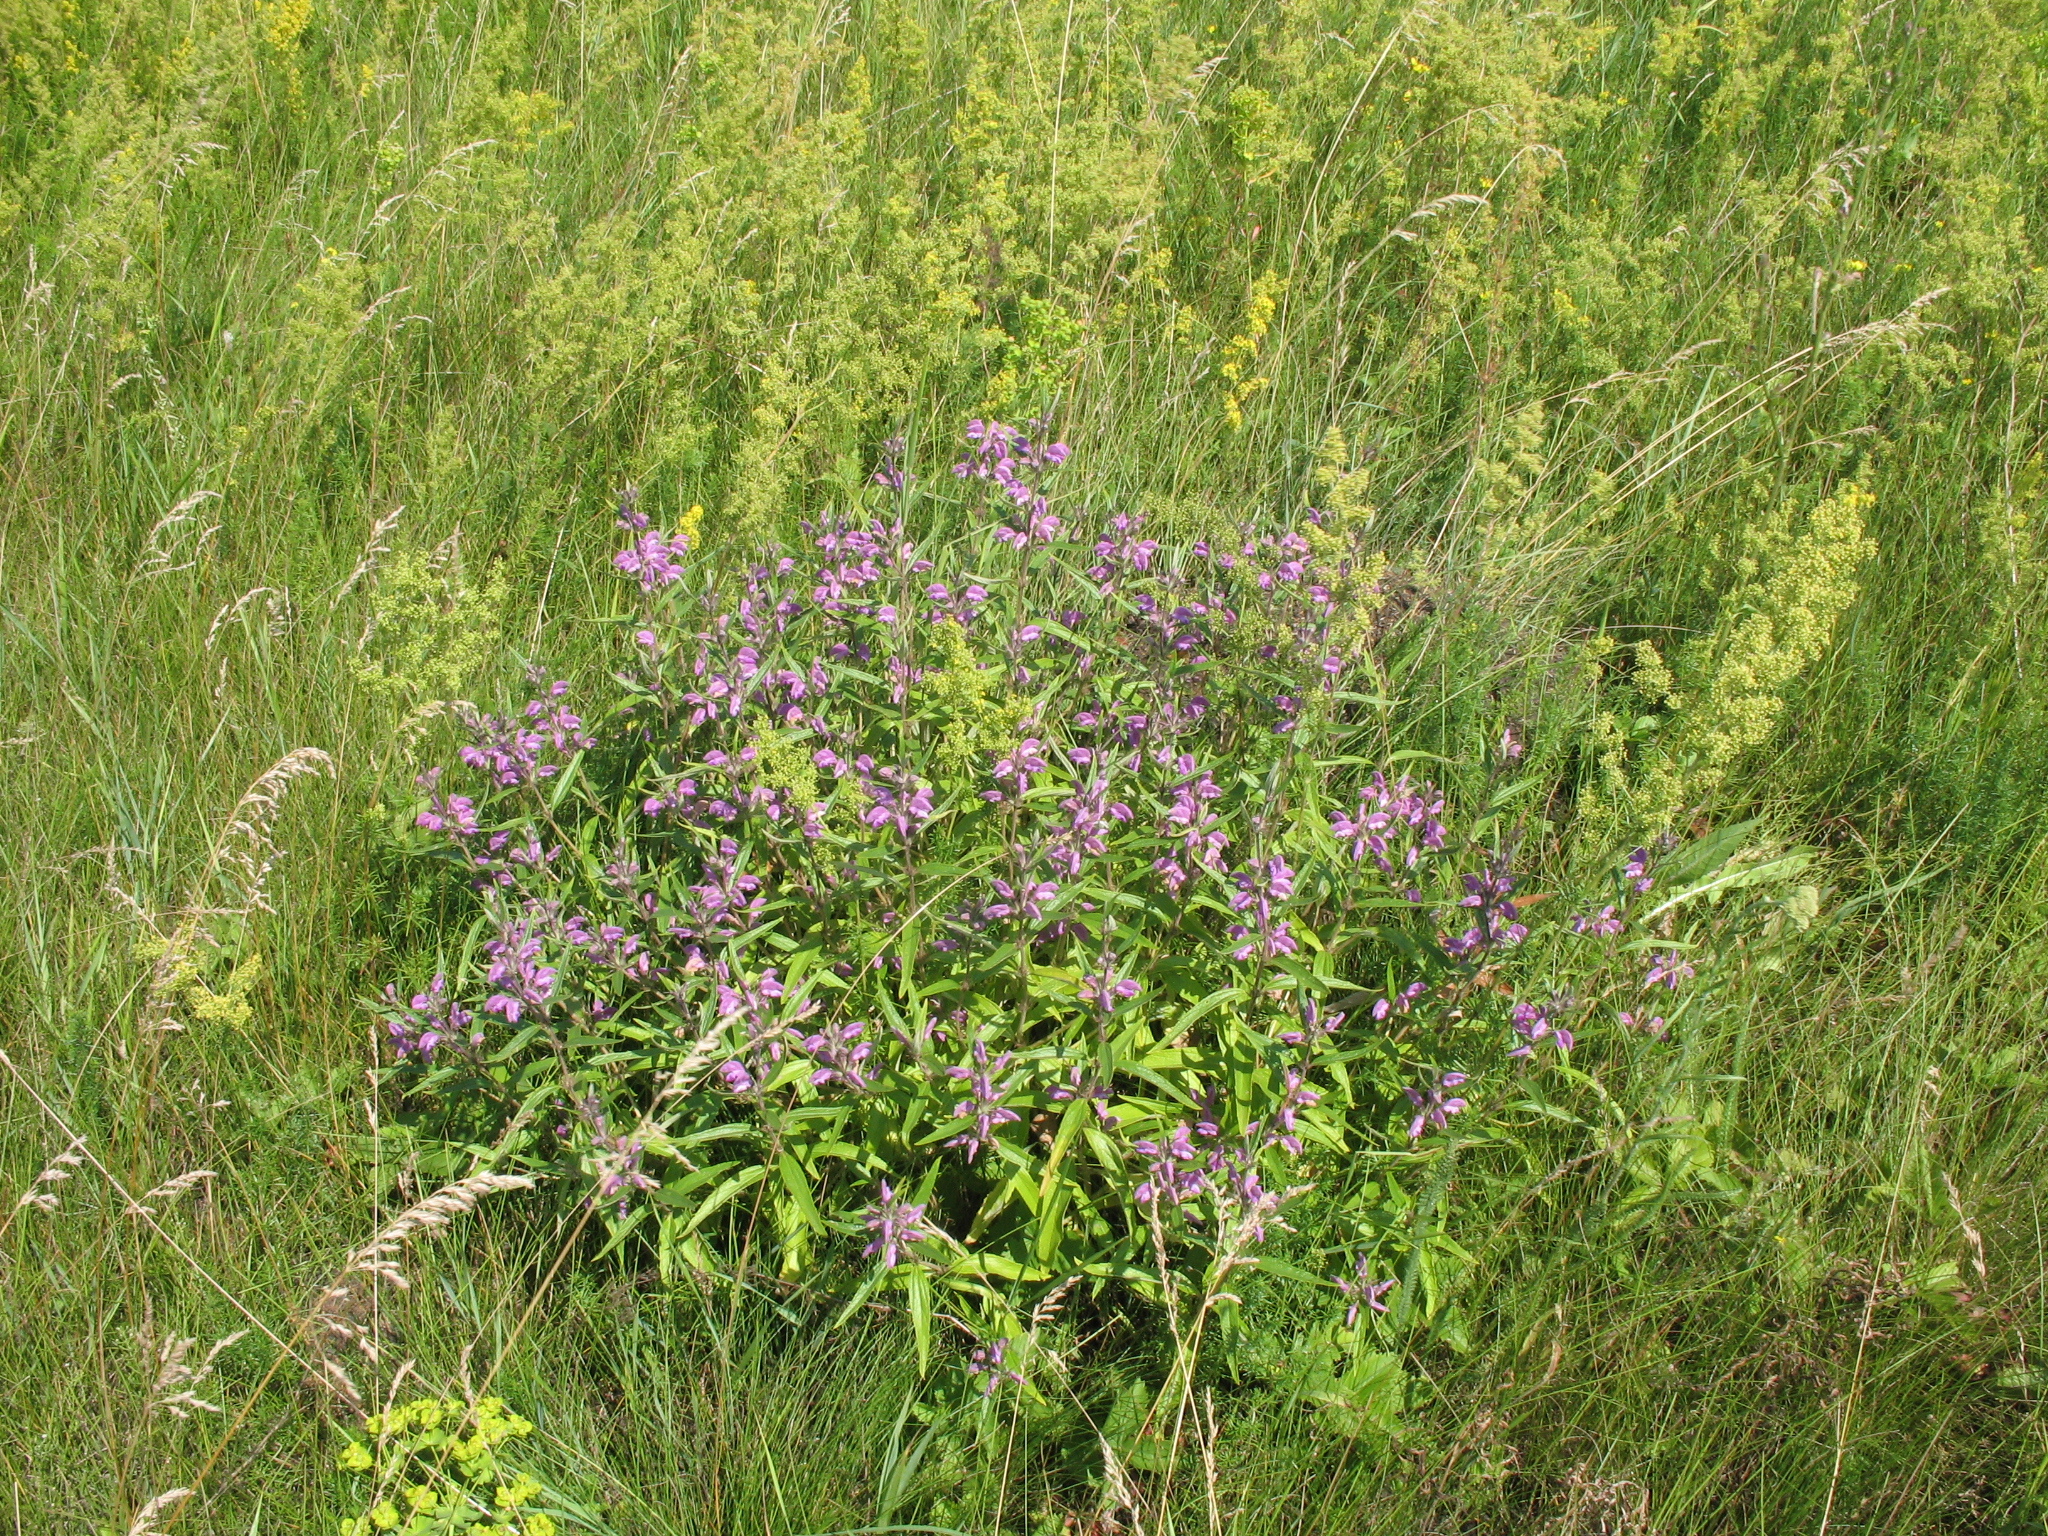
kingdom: Plantae
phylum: Tracheophyta
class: Magnoliopsida
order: Lamiales
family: Lamiaceae
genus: Phlomis
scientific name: Phlomis herba-venti
